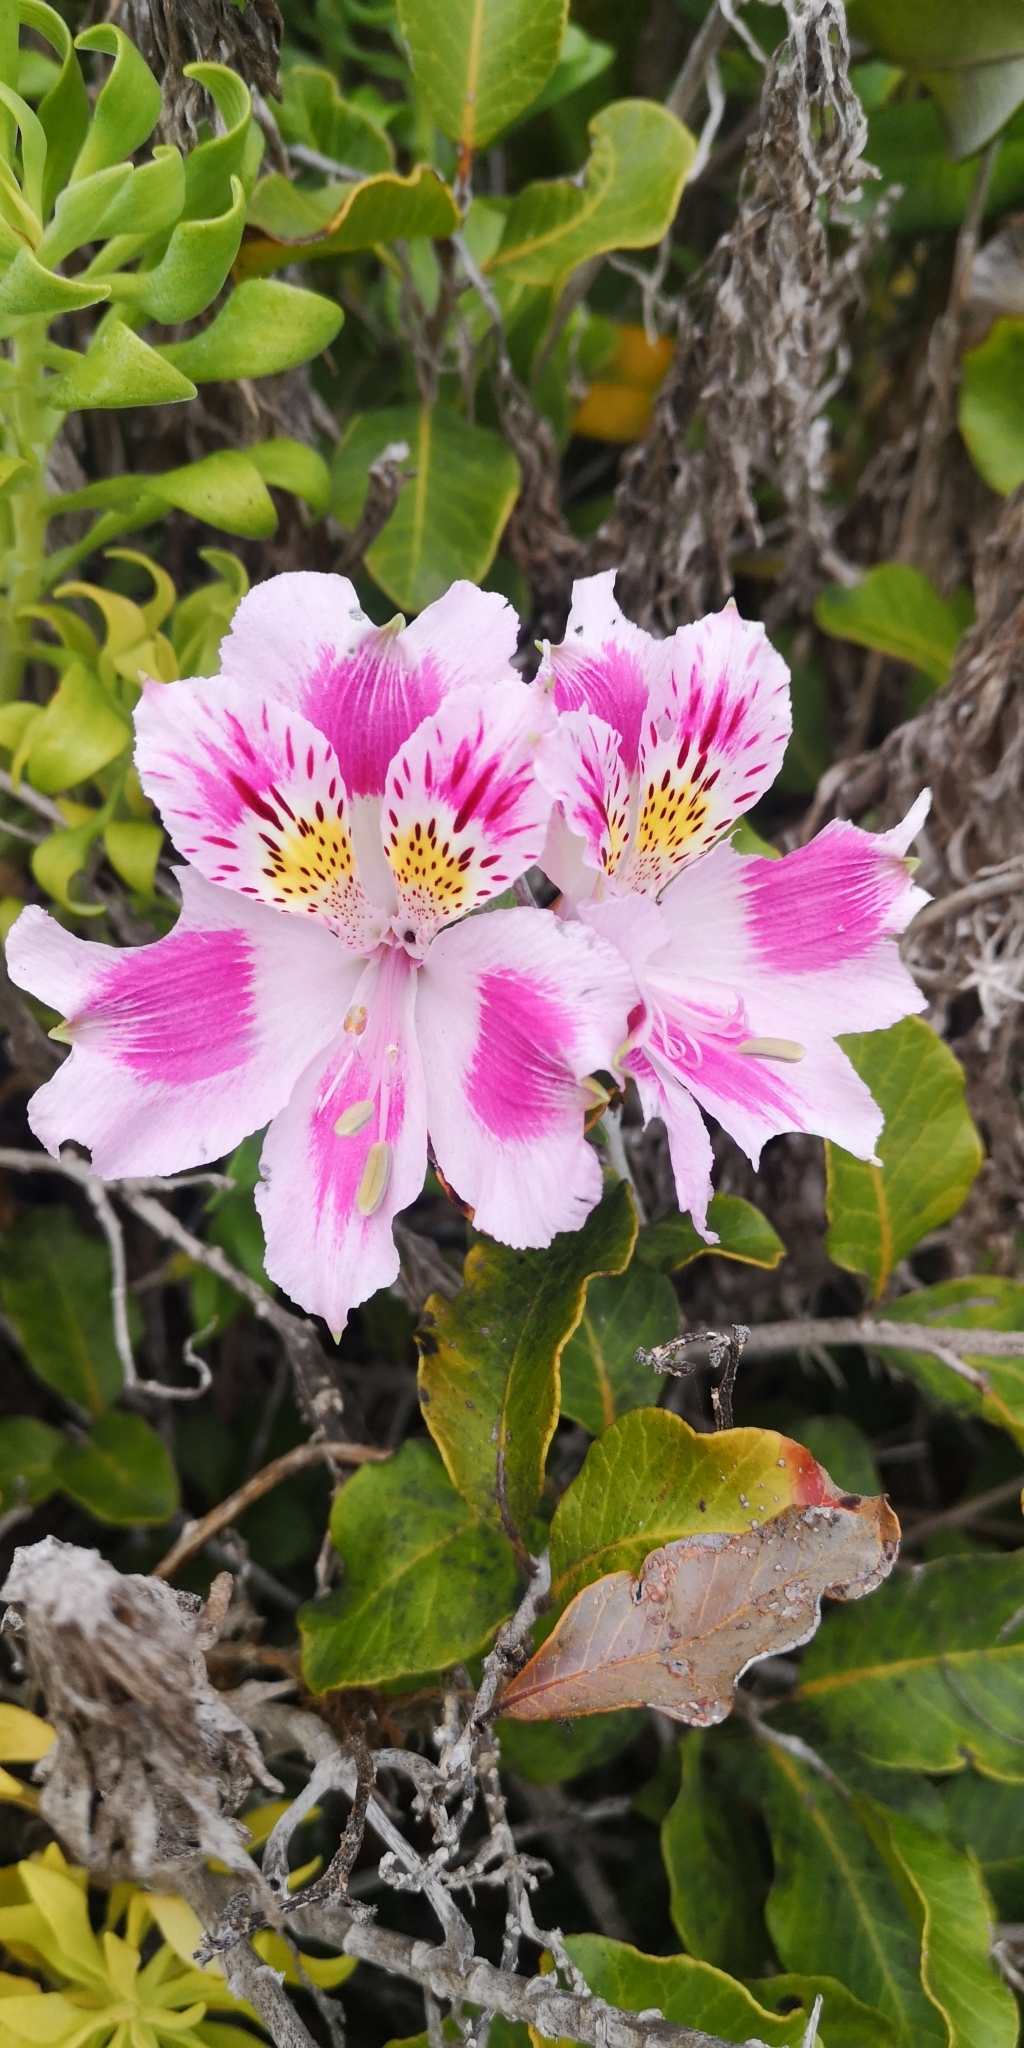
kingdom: Plantae
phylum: Tracheophyta
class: Liliopsida
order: Liliales
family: Alstroemeriaceae
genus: Alstroemeria
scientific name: Alstroemeria pelegrina
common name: Peruvian-lily
